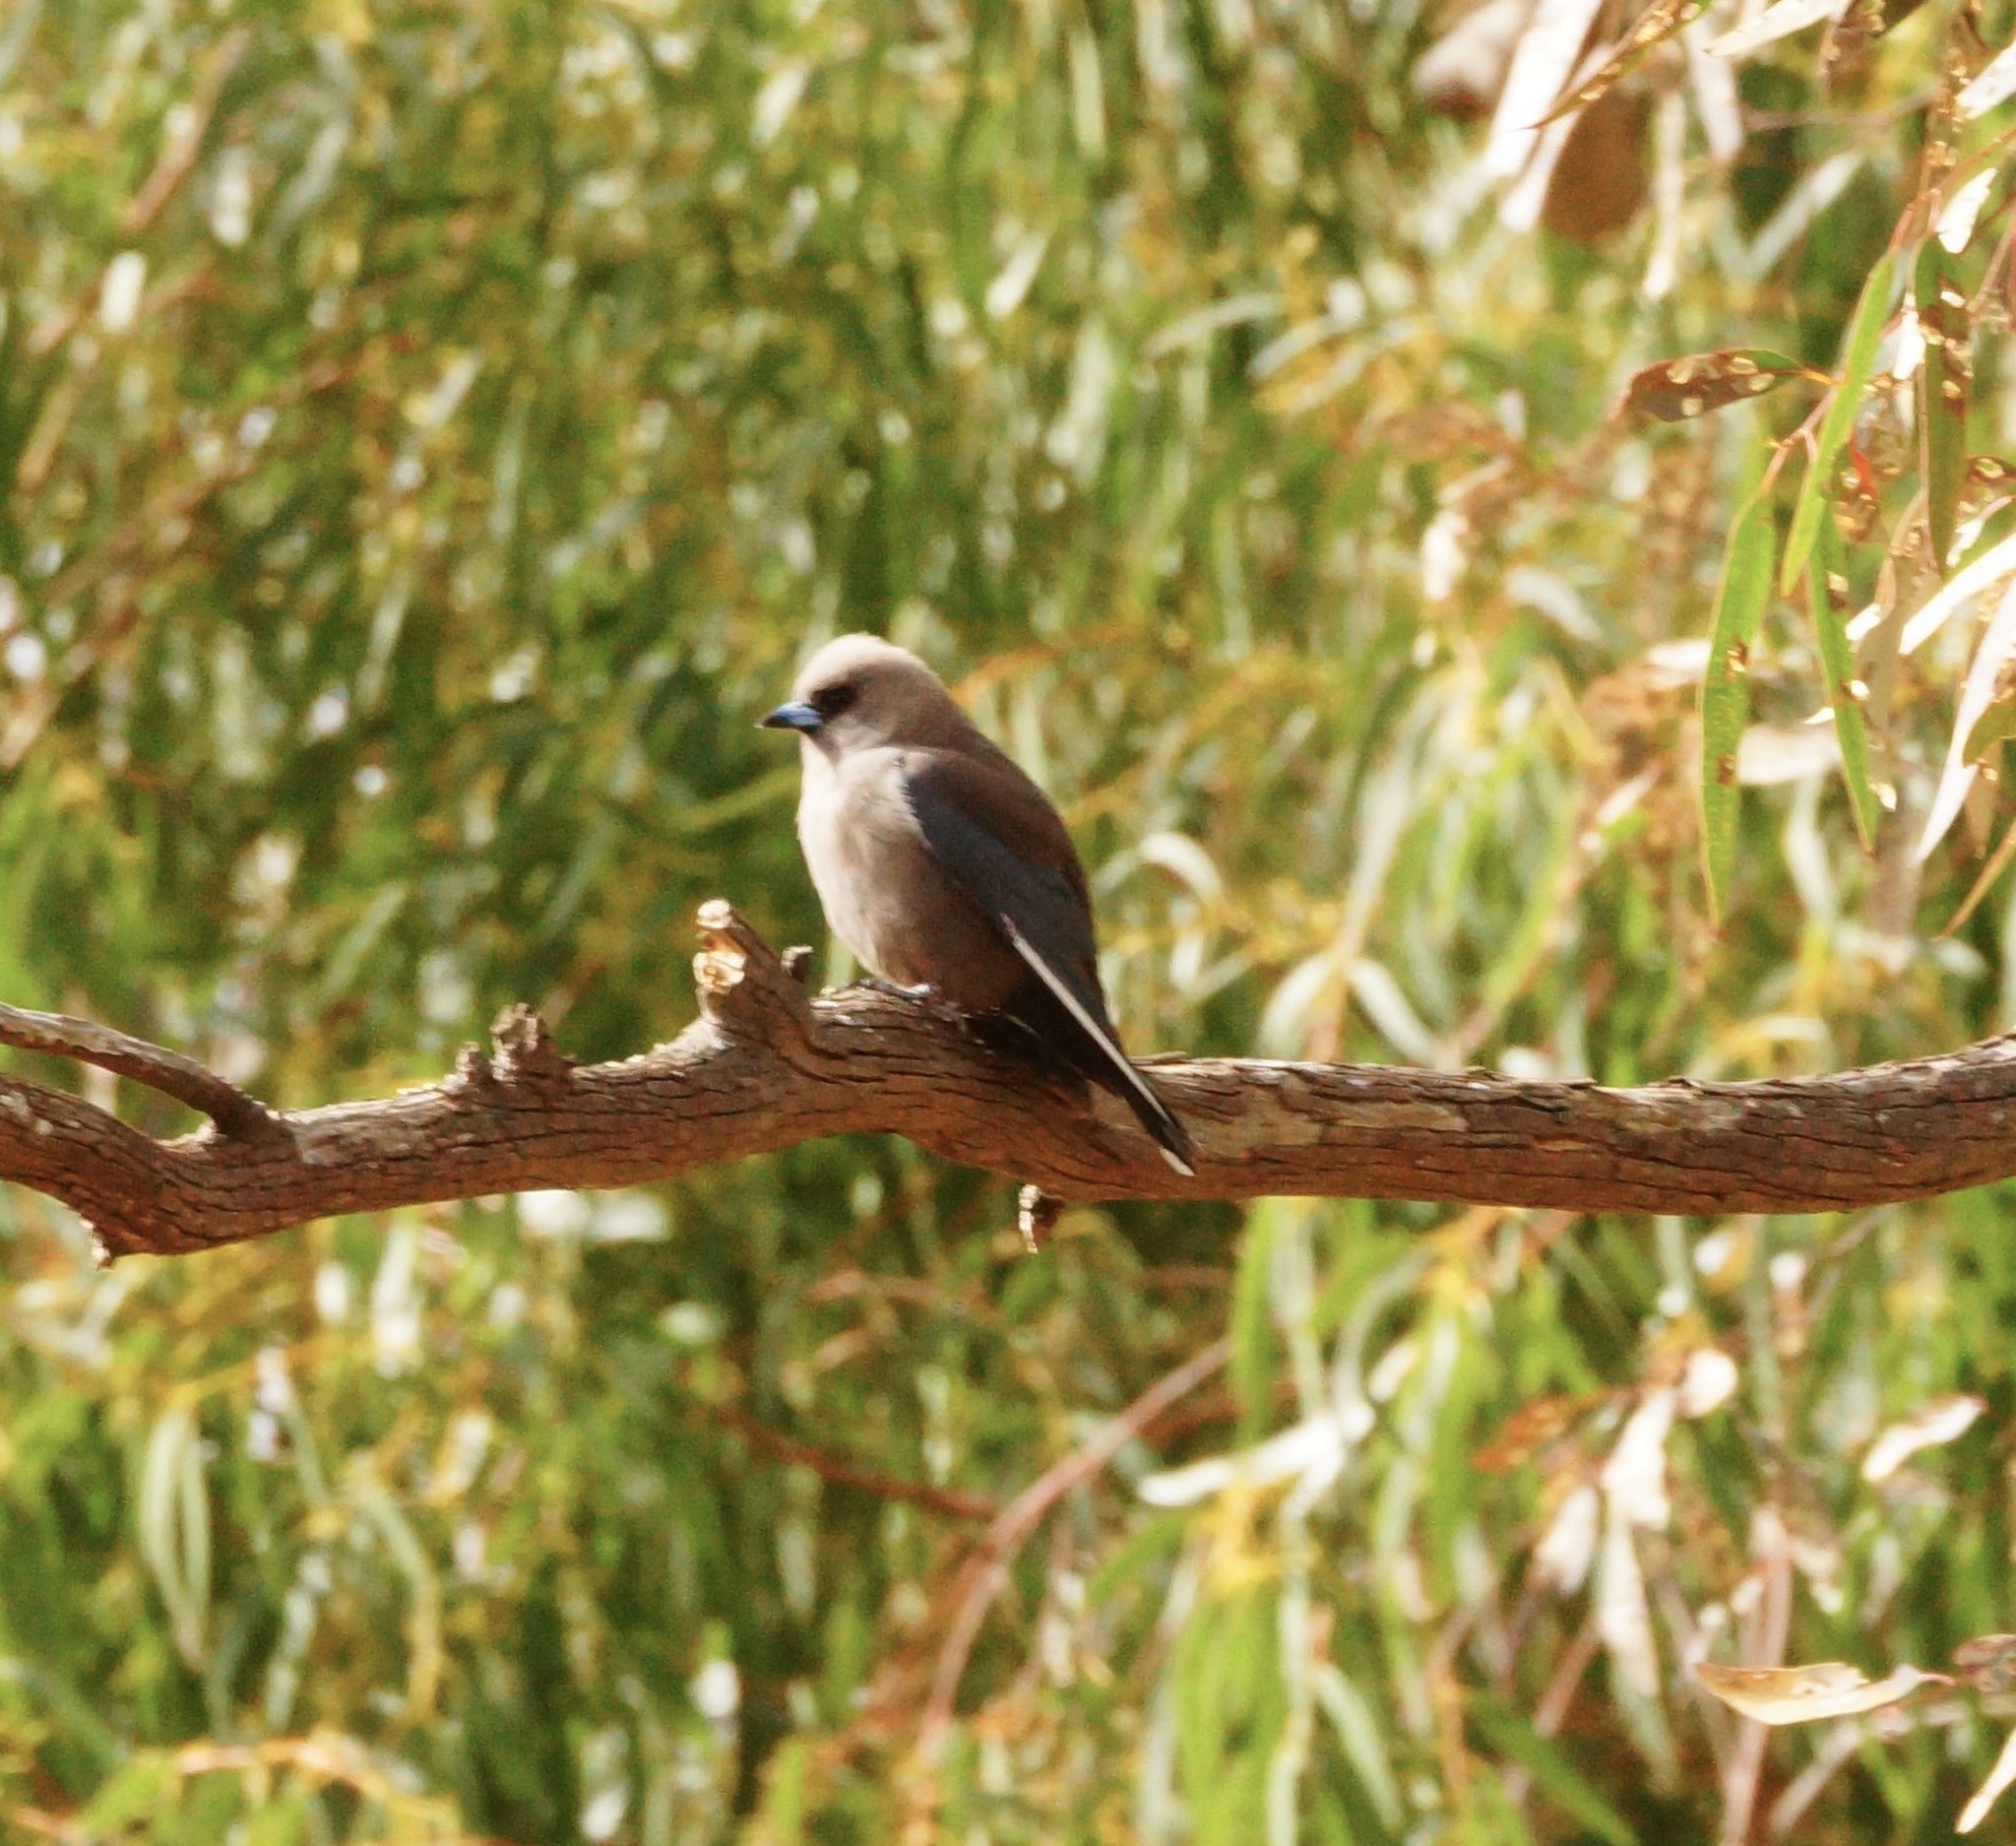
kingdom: Animalia
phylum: Chordata
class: Aves
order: Passeriformes
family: Artamidae
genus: Artamus
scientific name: Artamus cyanopterus
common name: Dusky woodswallow
